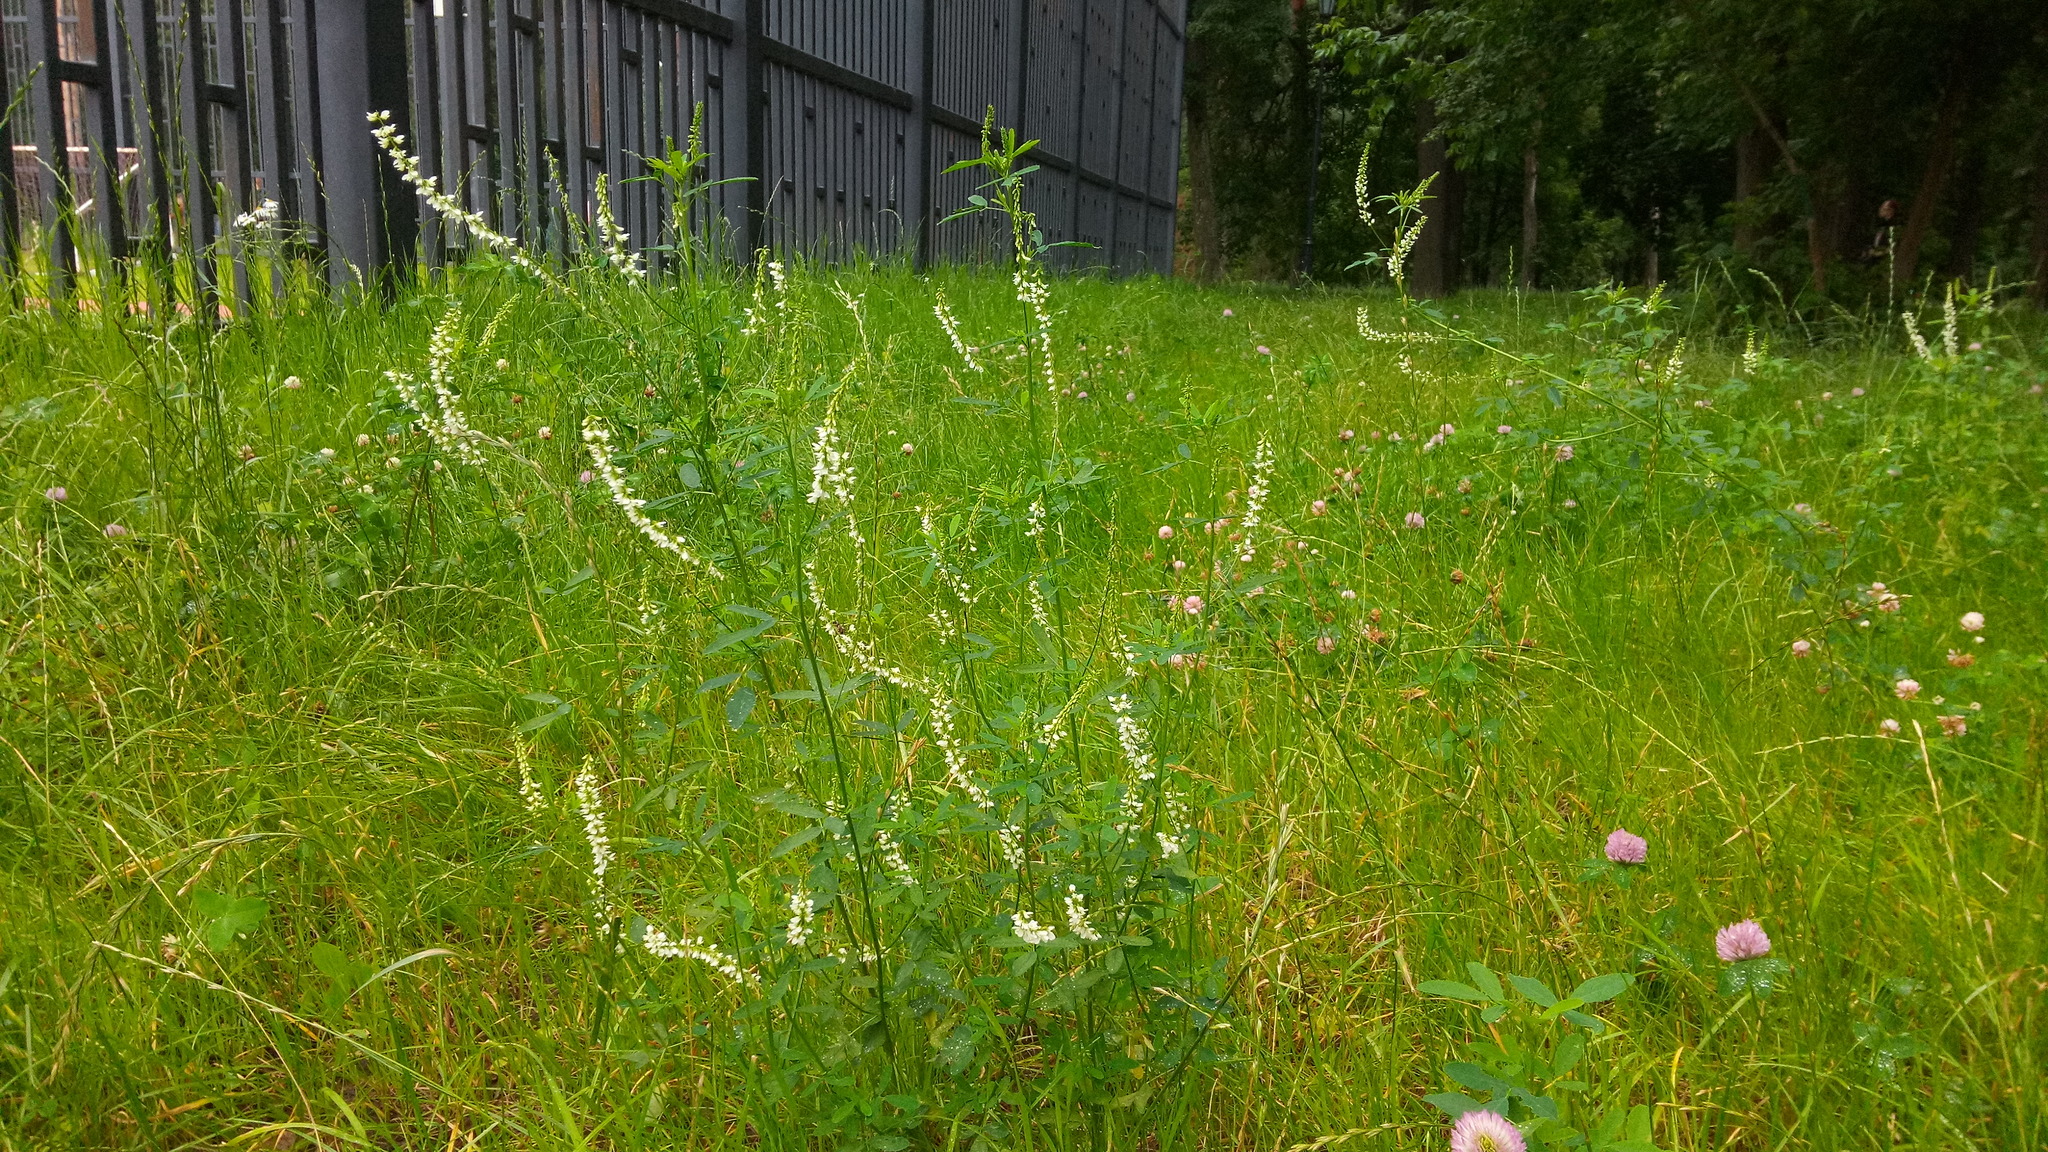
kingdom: Plantae
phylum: Tracheophyta
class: Magnoliopsida
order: Fabales
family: Fabaceae
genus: Melilotus
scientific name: Melilotus albus
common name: White melilot
